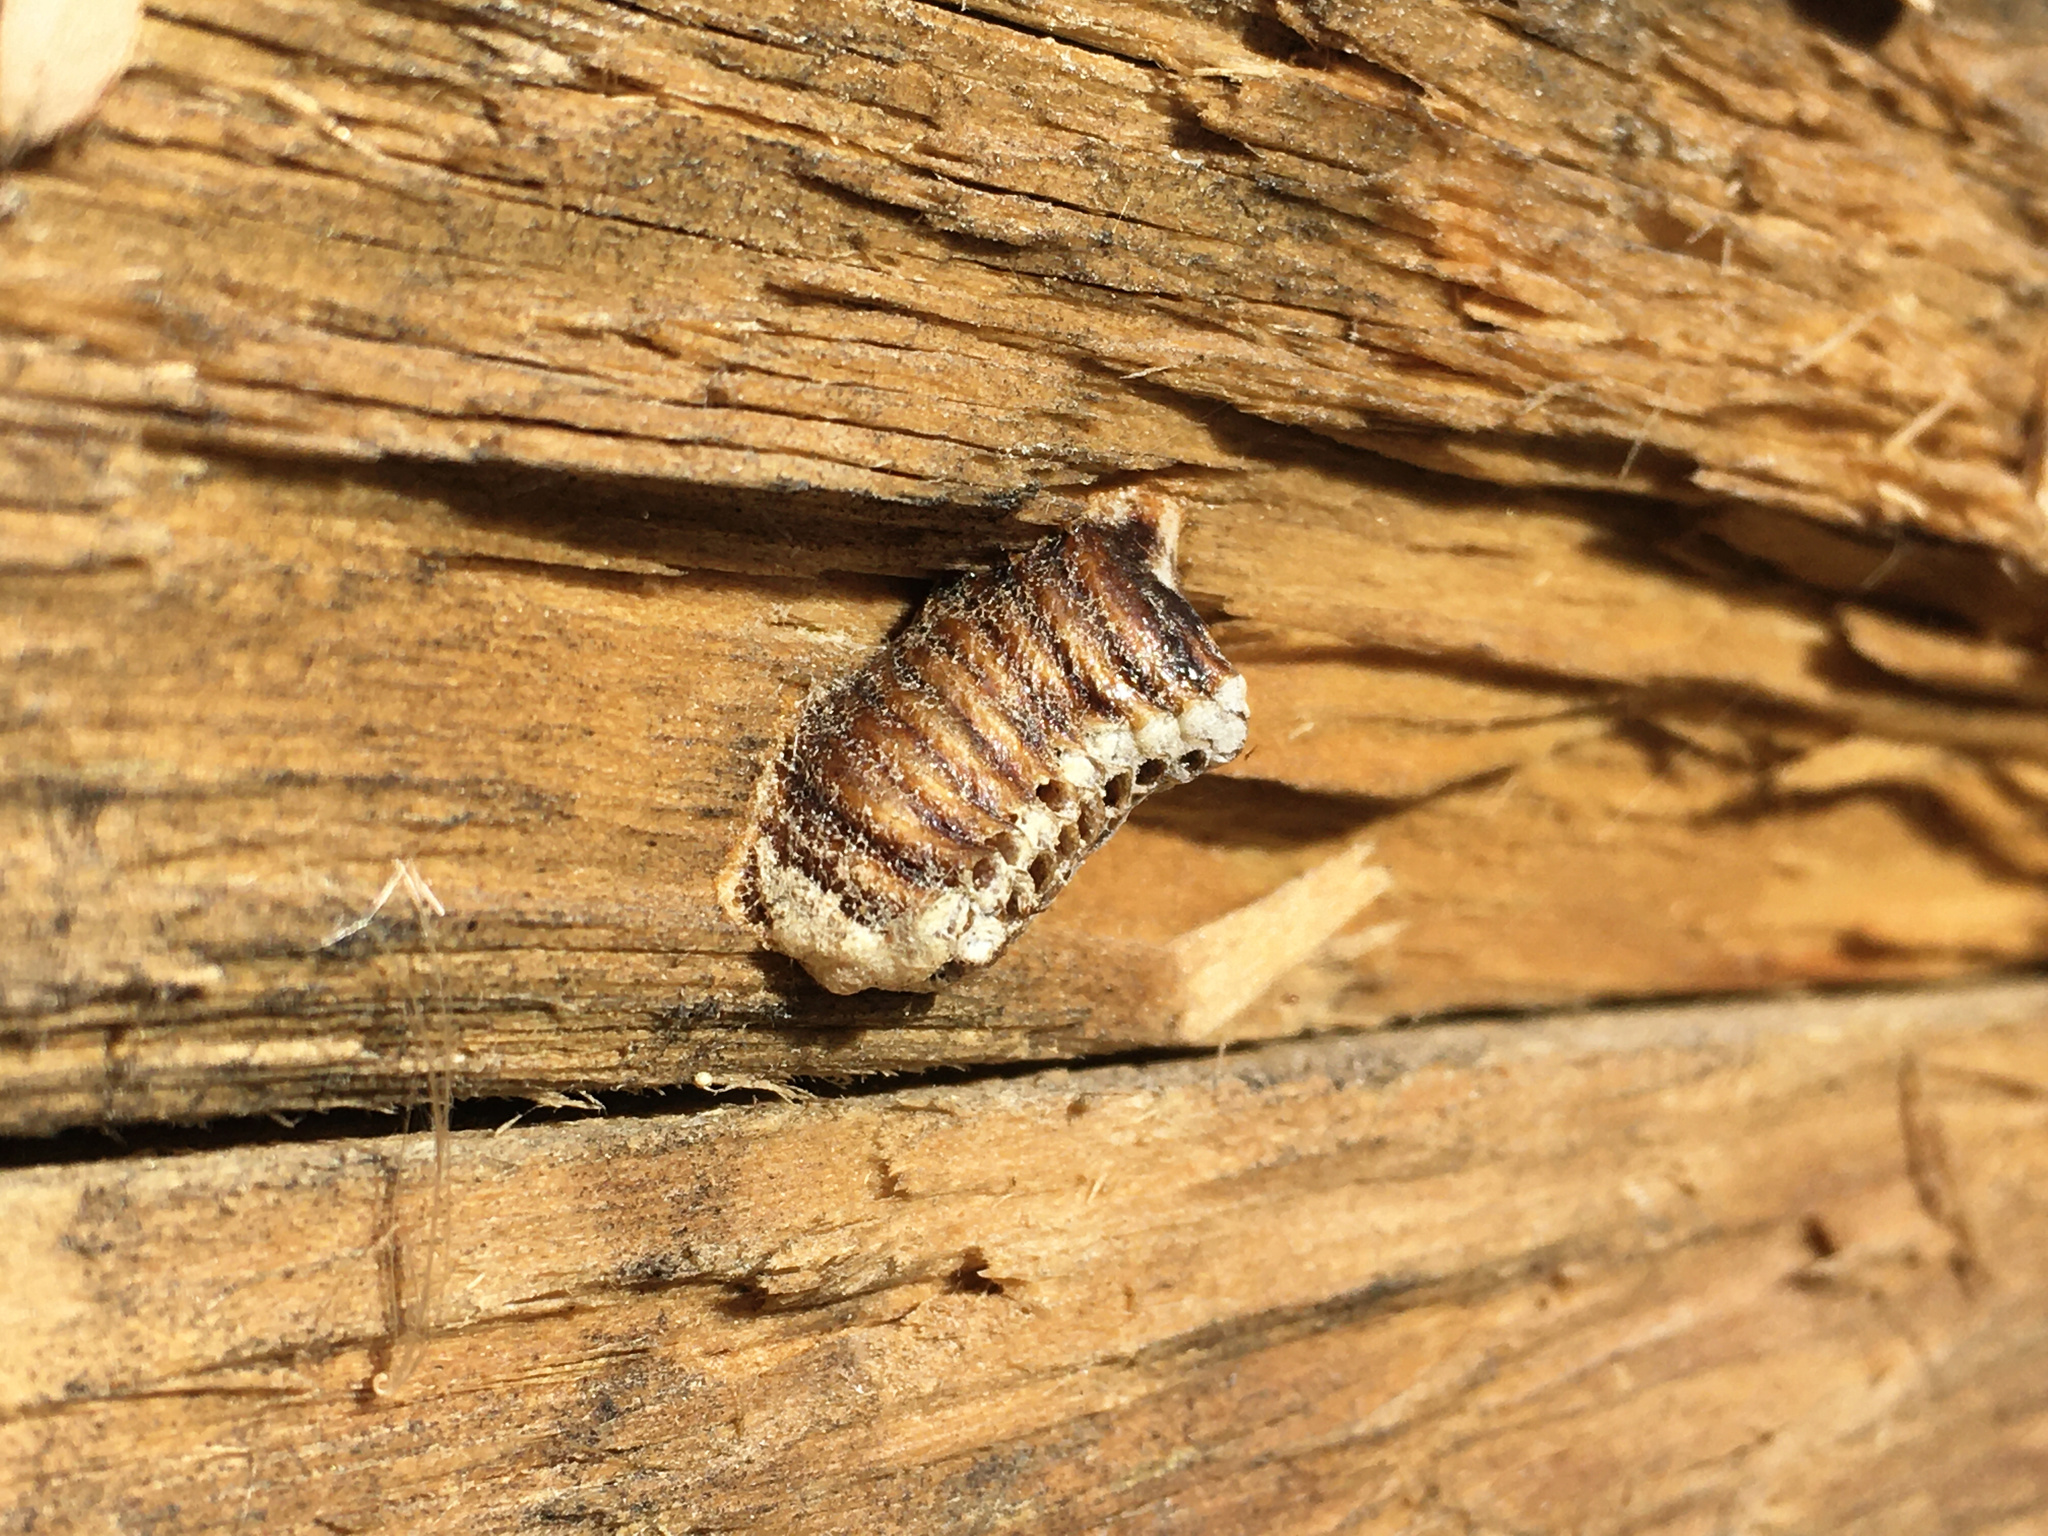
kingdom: Animalia
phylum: Arthropoda
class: Insecta
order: Mantodea
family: Mantidae
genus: Orthodera
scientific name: Orthodera novaezealandiae
